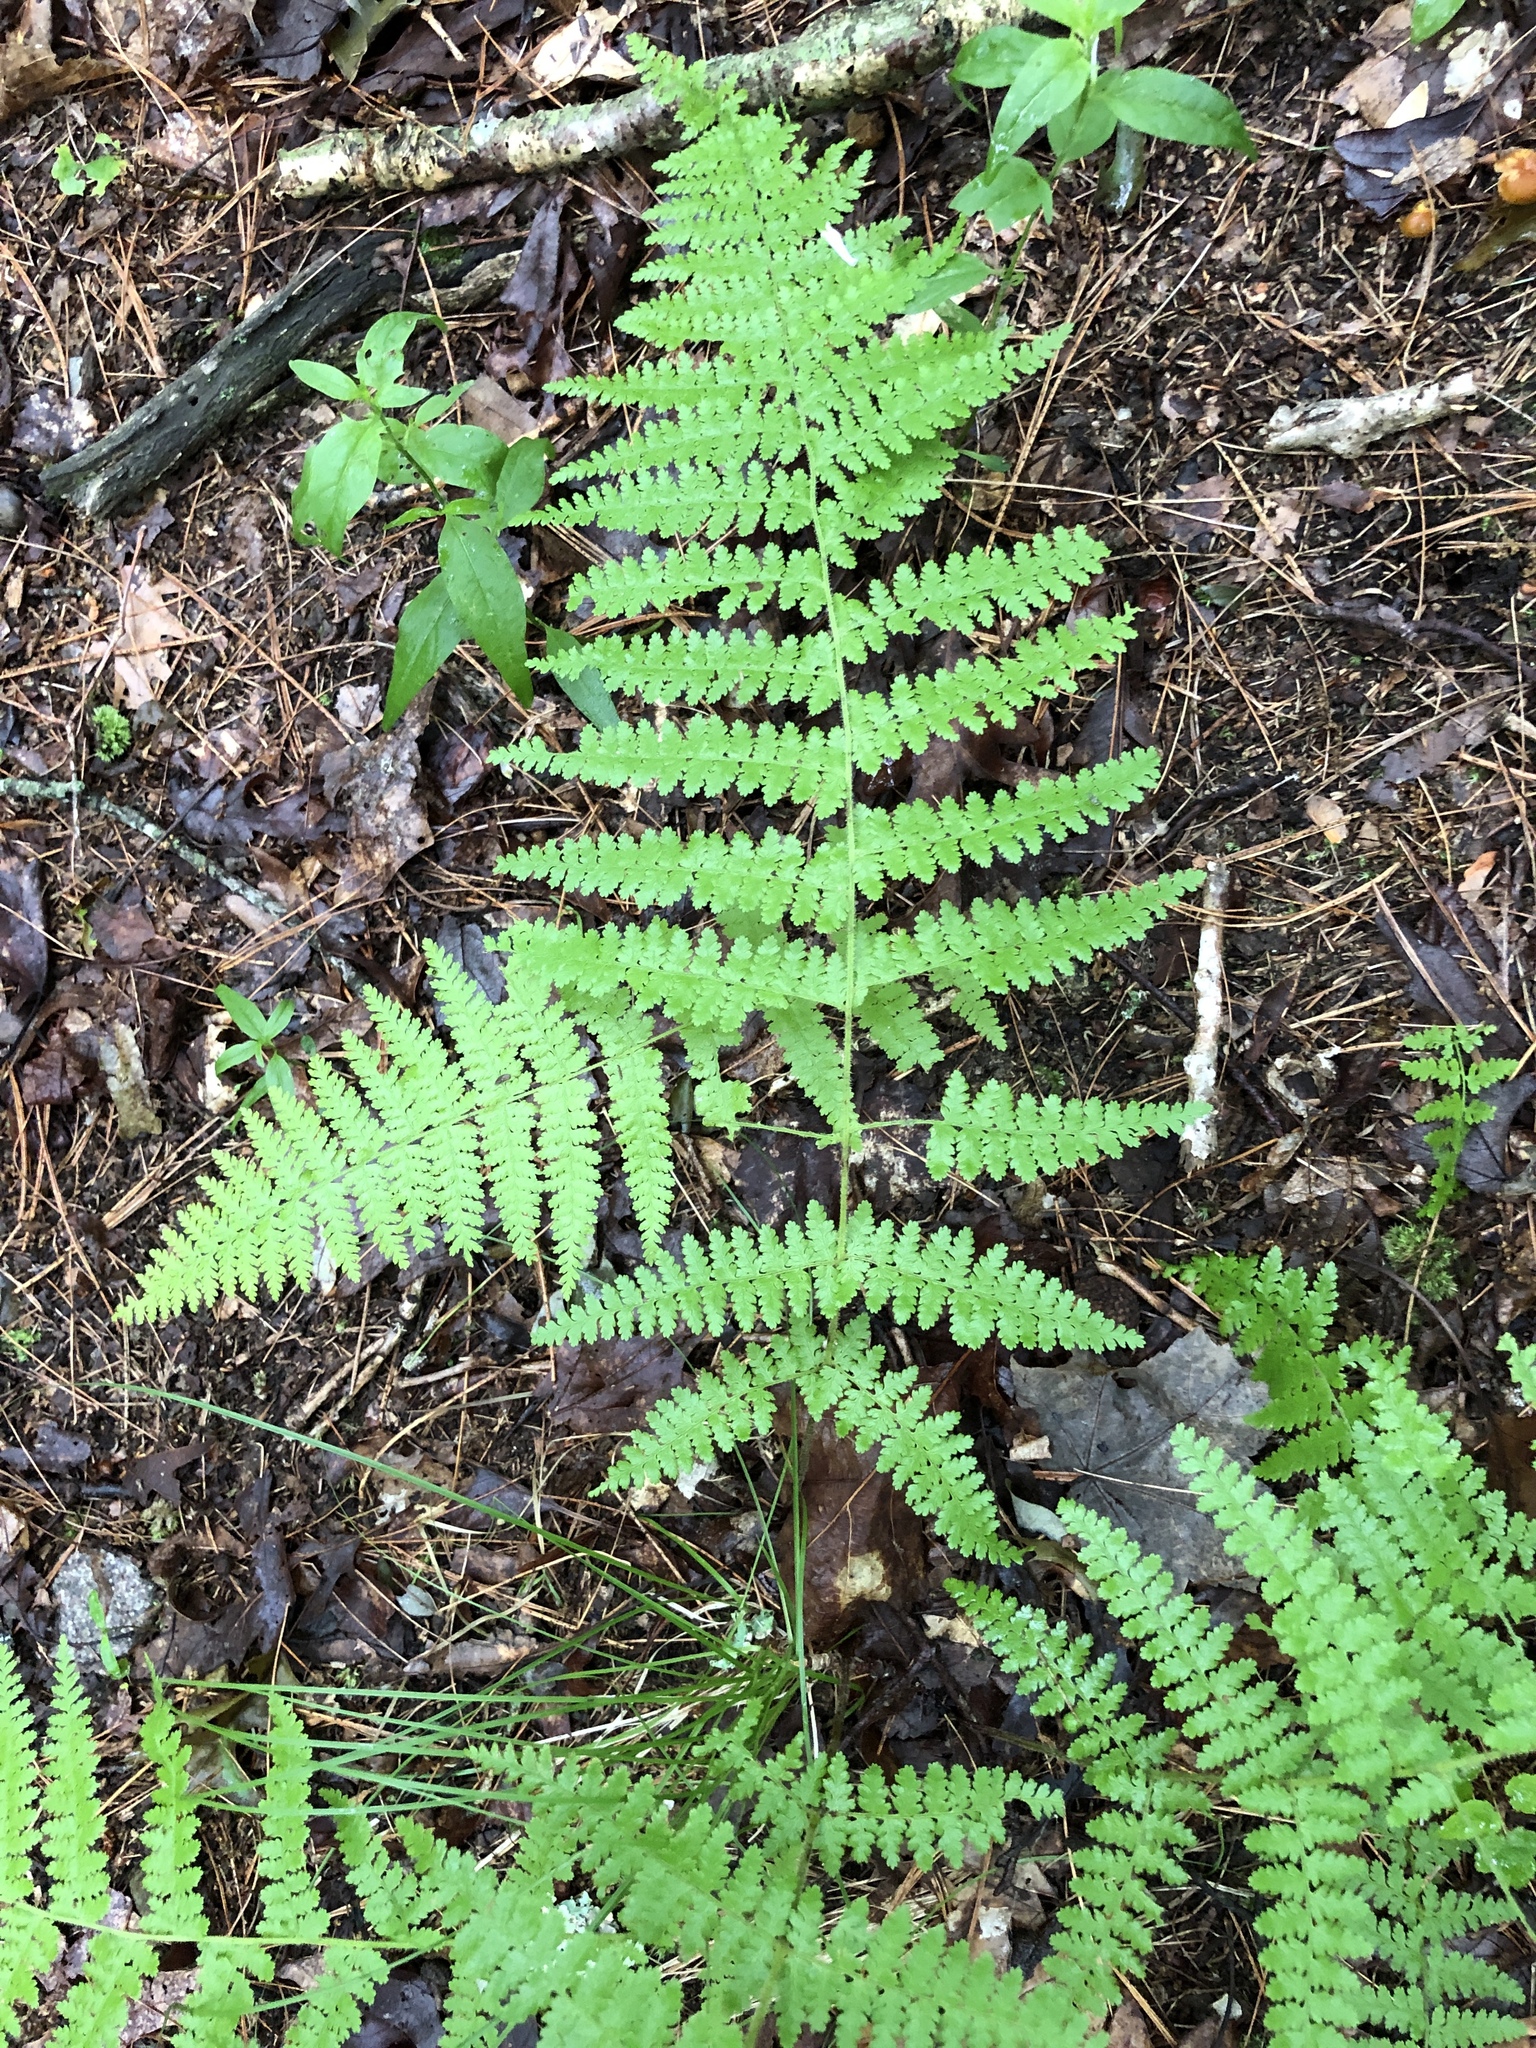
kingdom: Plantae
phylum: Tracheophyta
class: Polypodiopsida
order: Polypodiales
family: Dennstaedtiaceae
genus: Sitobolium
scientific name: Sitobolium punctilobum
